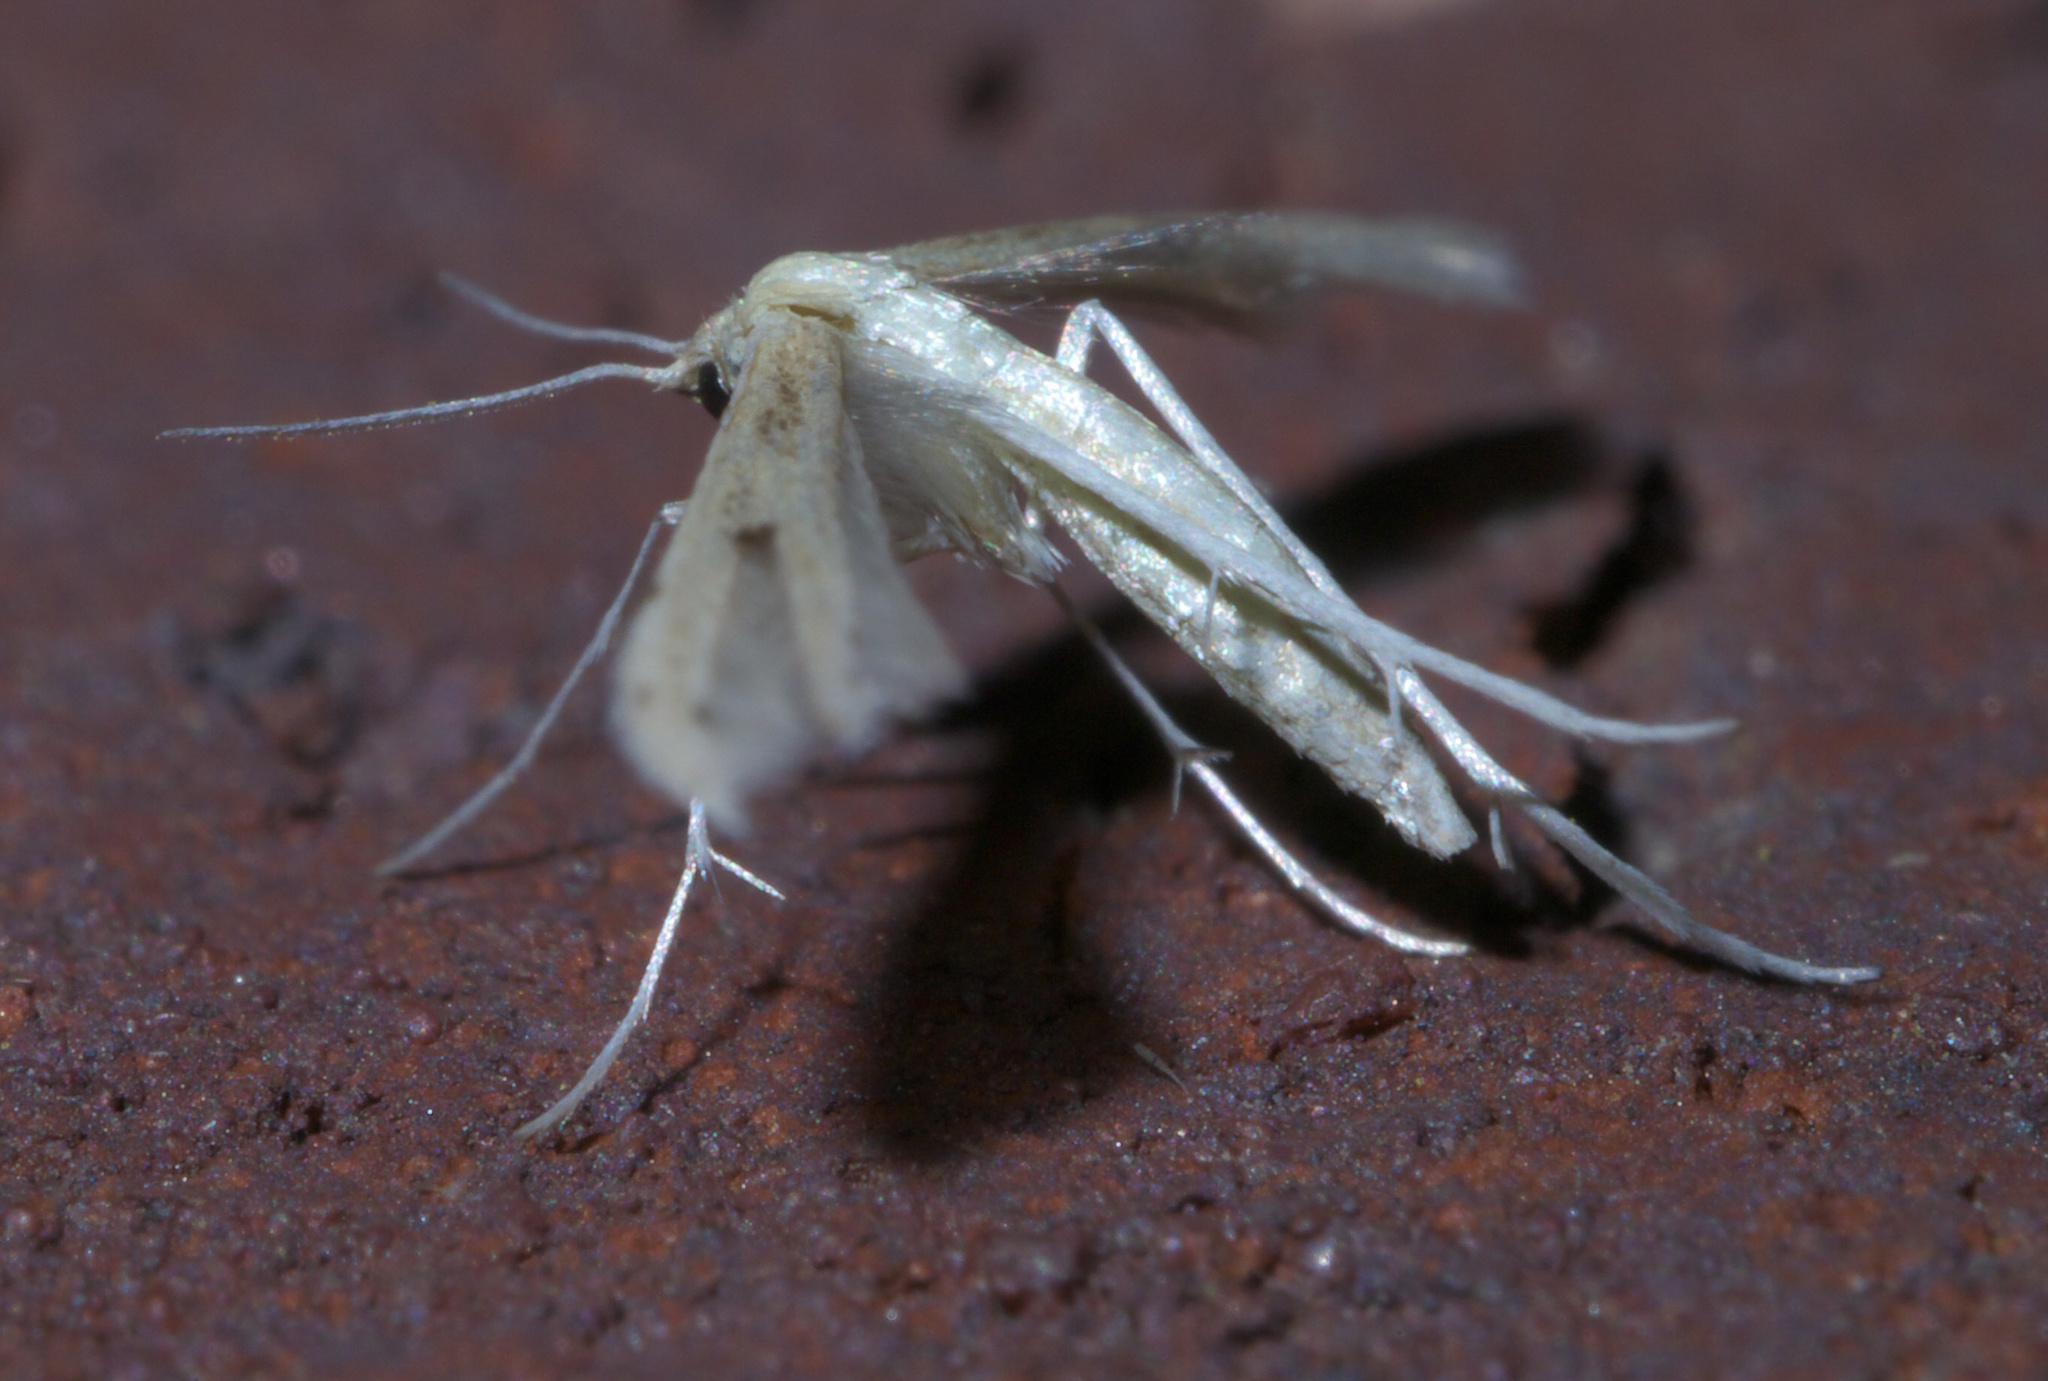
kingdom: Animalia
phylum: Arthropoda
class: Insecta
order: Lepidoptera
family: Pterophoridae
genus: Adaina
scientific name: Adaina
